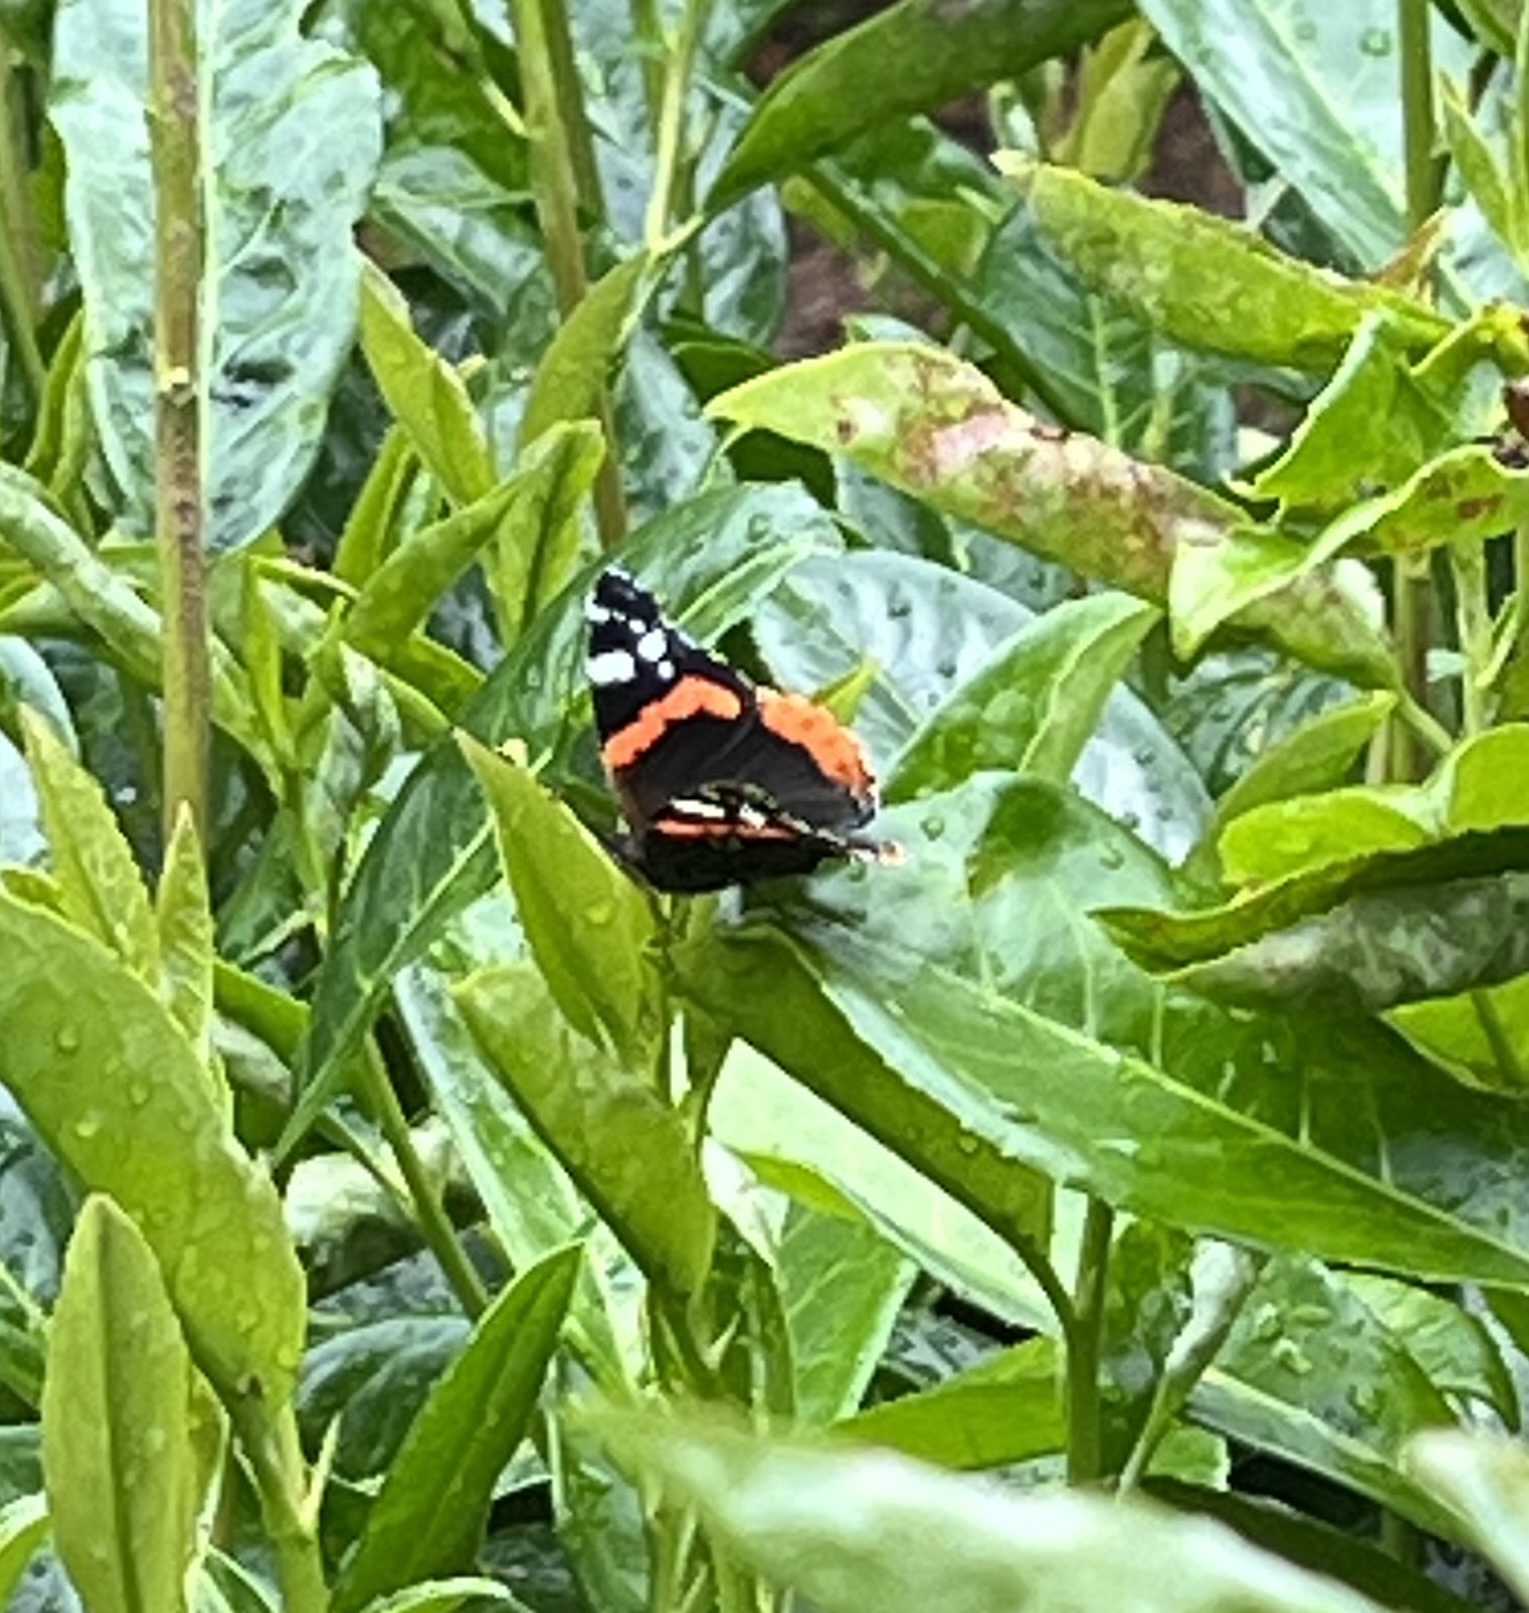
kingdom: Animalia
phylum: Arthropoda
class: Insecta
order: Lepidoptera
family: Nymphalidae
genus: Vanessa
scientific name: Vanessa atalanta
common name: Red admiral
